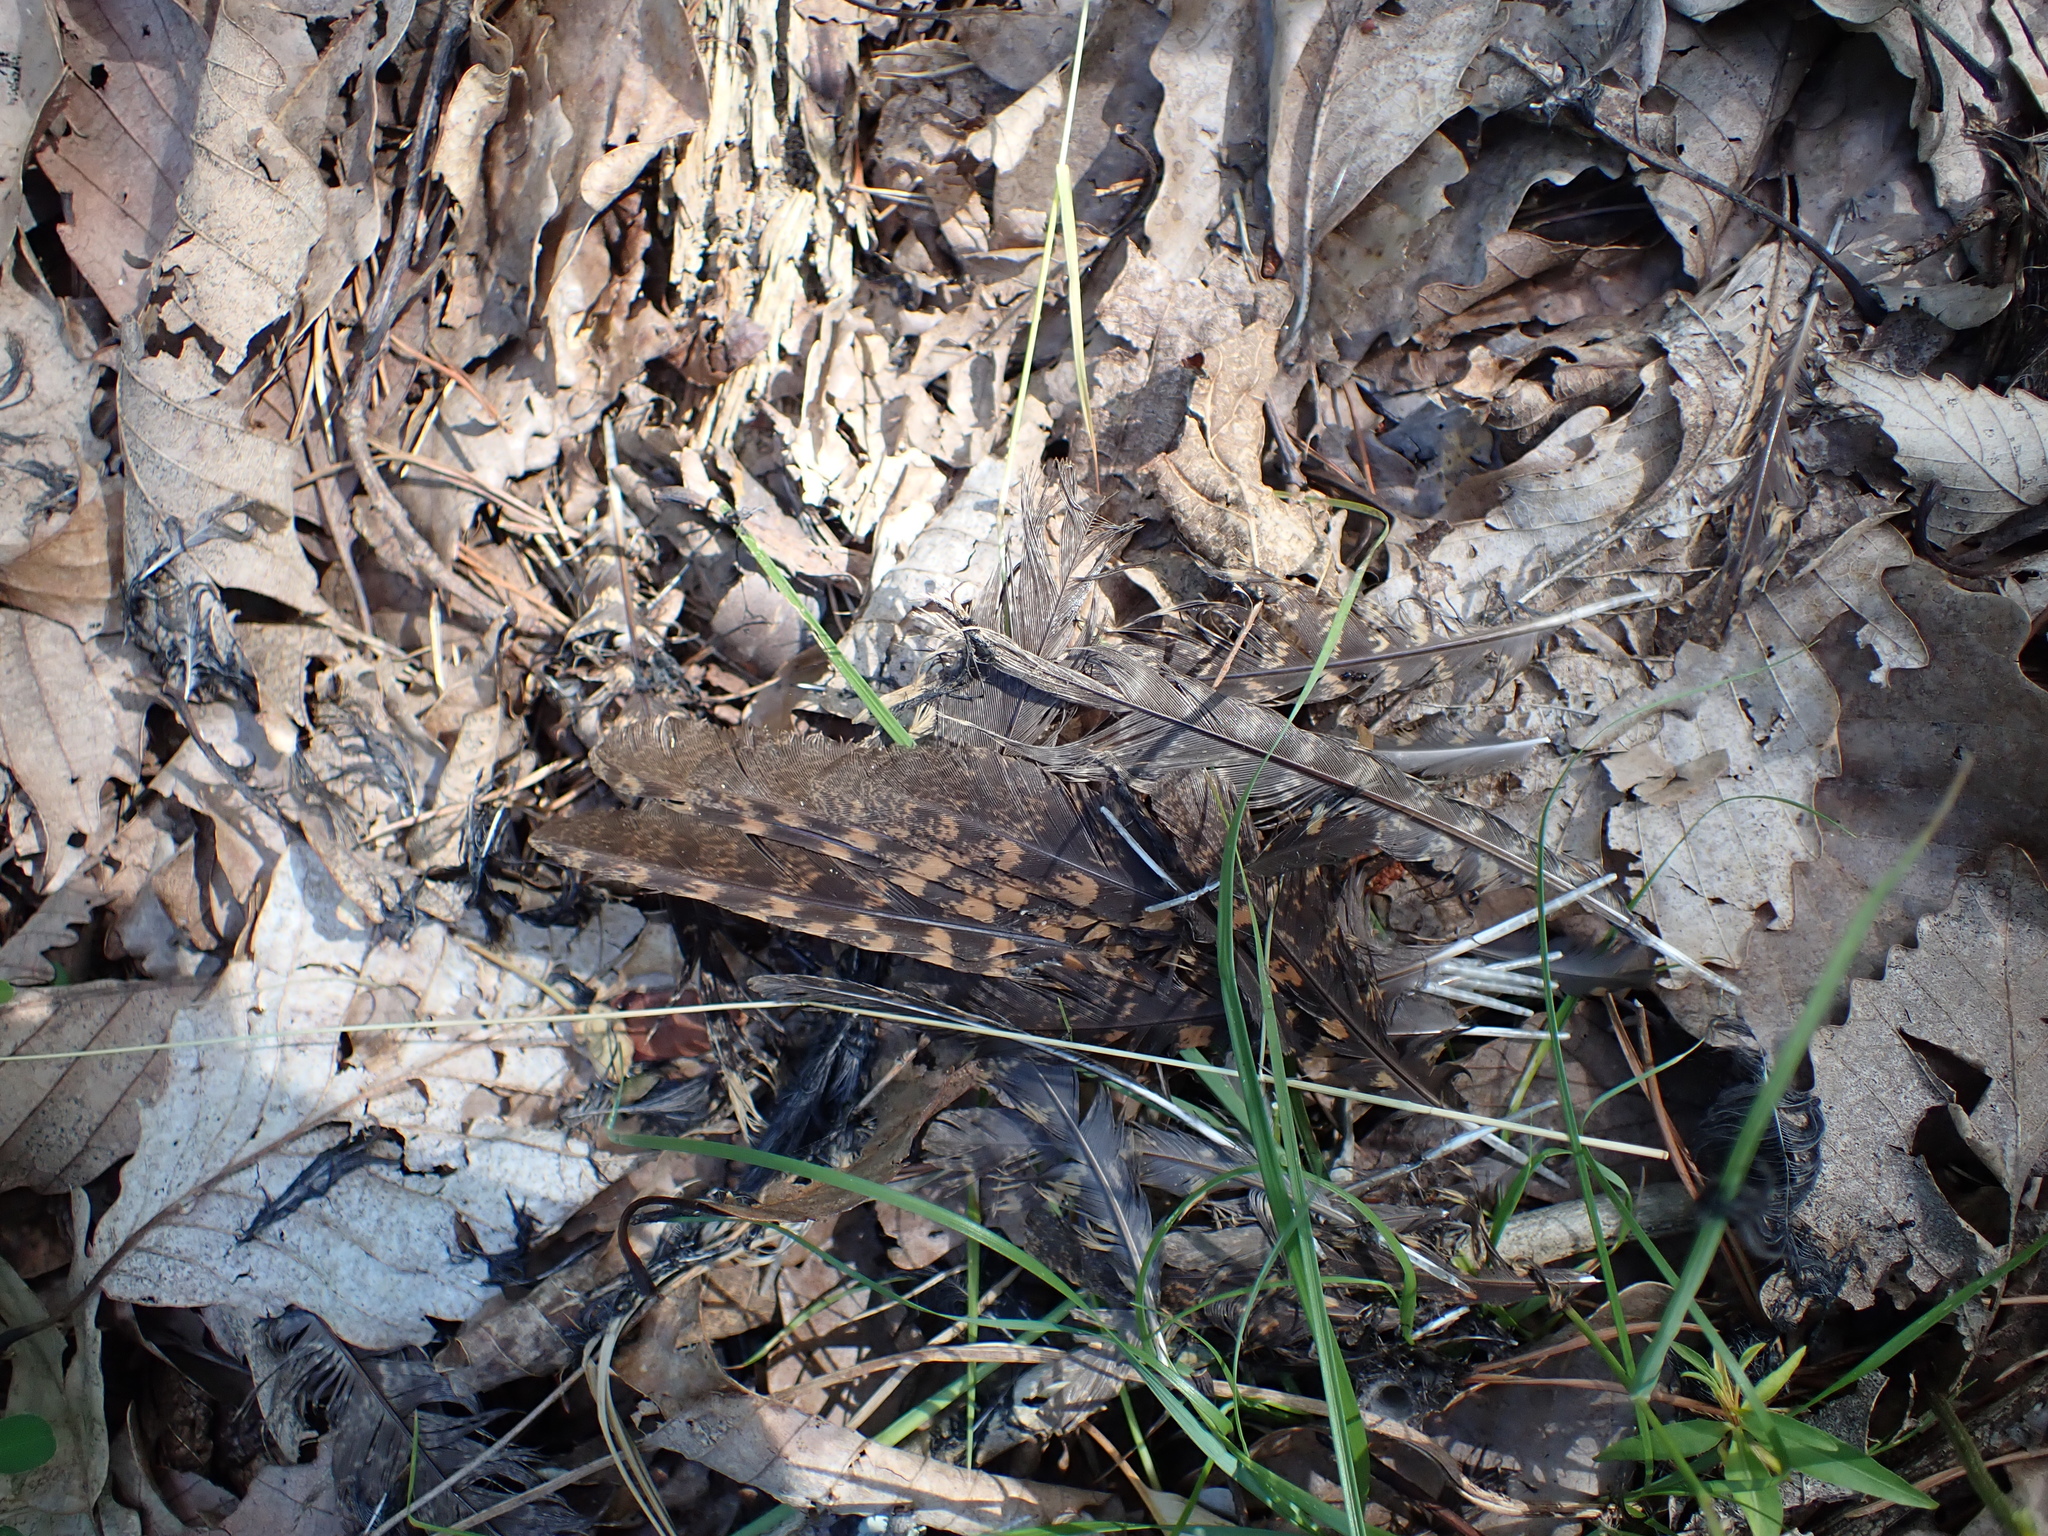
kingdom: Animalia
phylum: Chordata
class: Aves
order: Caprimulgiformes
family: Caprimulgidae
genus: Antrostomus
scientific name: Antrostomus carolinensis
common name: Chuck-will's-widow
